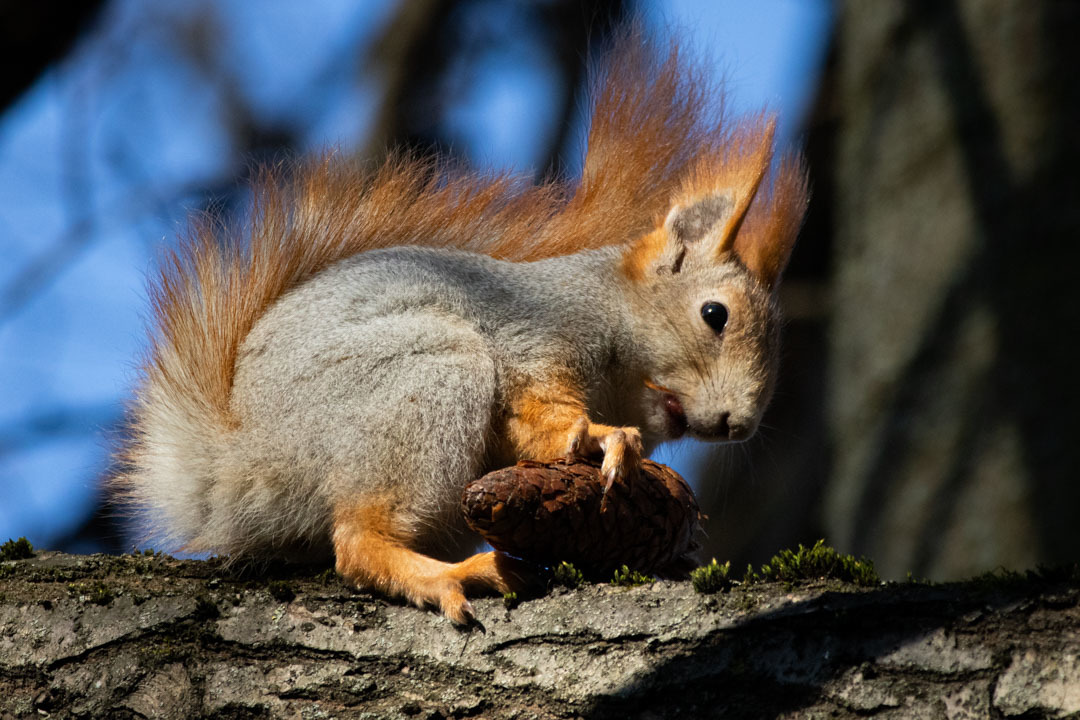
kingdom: Animalia
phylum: Chordata
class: Mammalia
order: Rodentia
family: Sciuridae
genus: Sciurus
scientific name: Sciurus vulgaris
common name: Eurasian red squirrel
